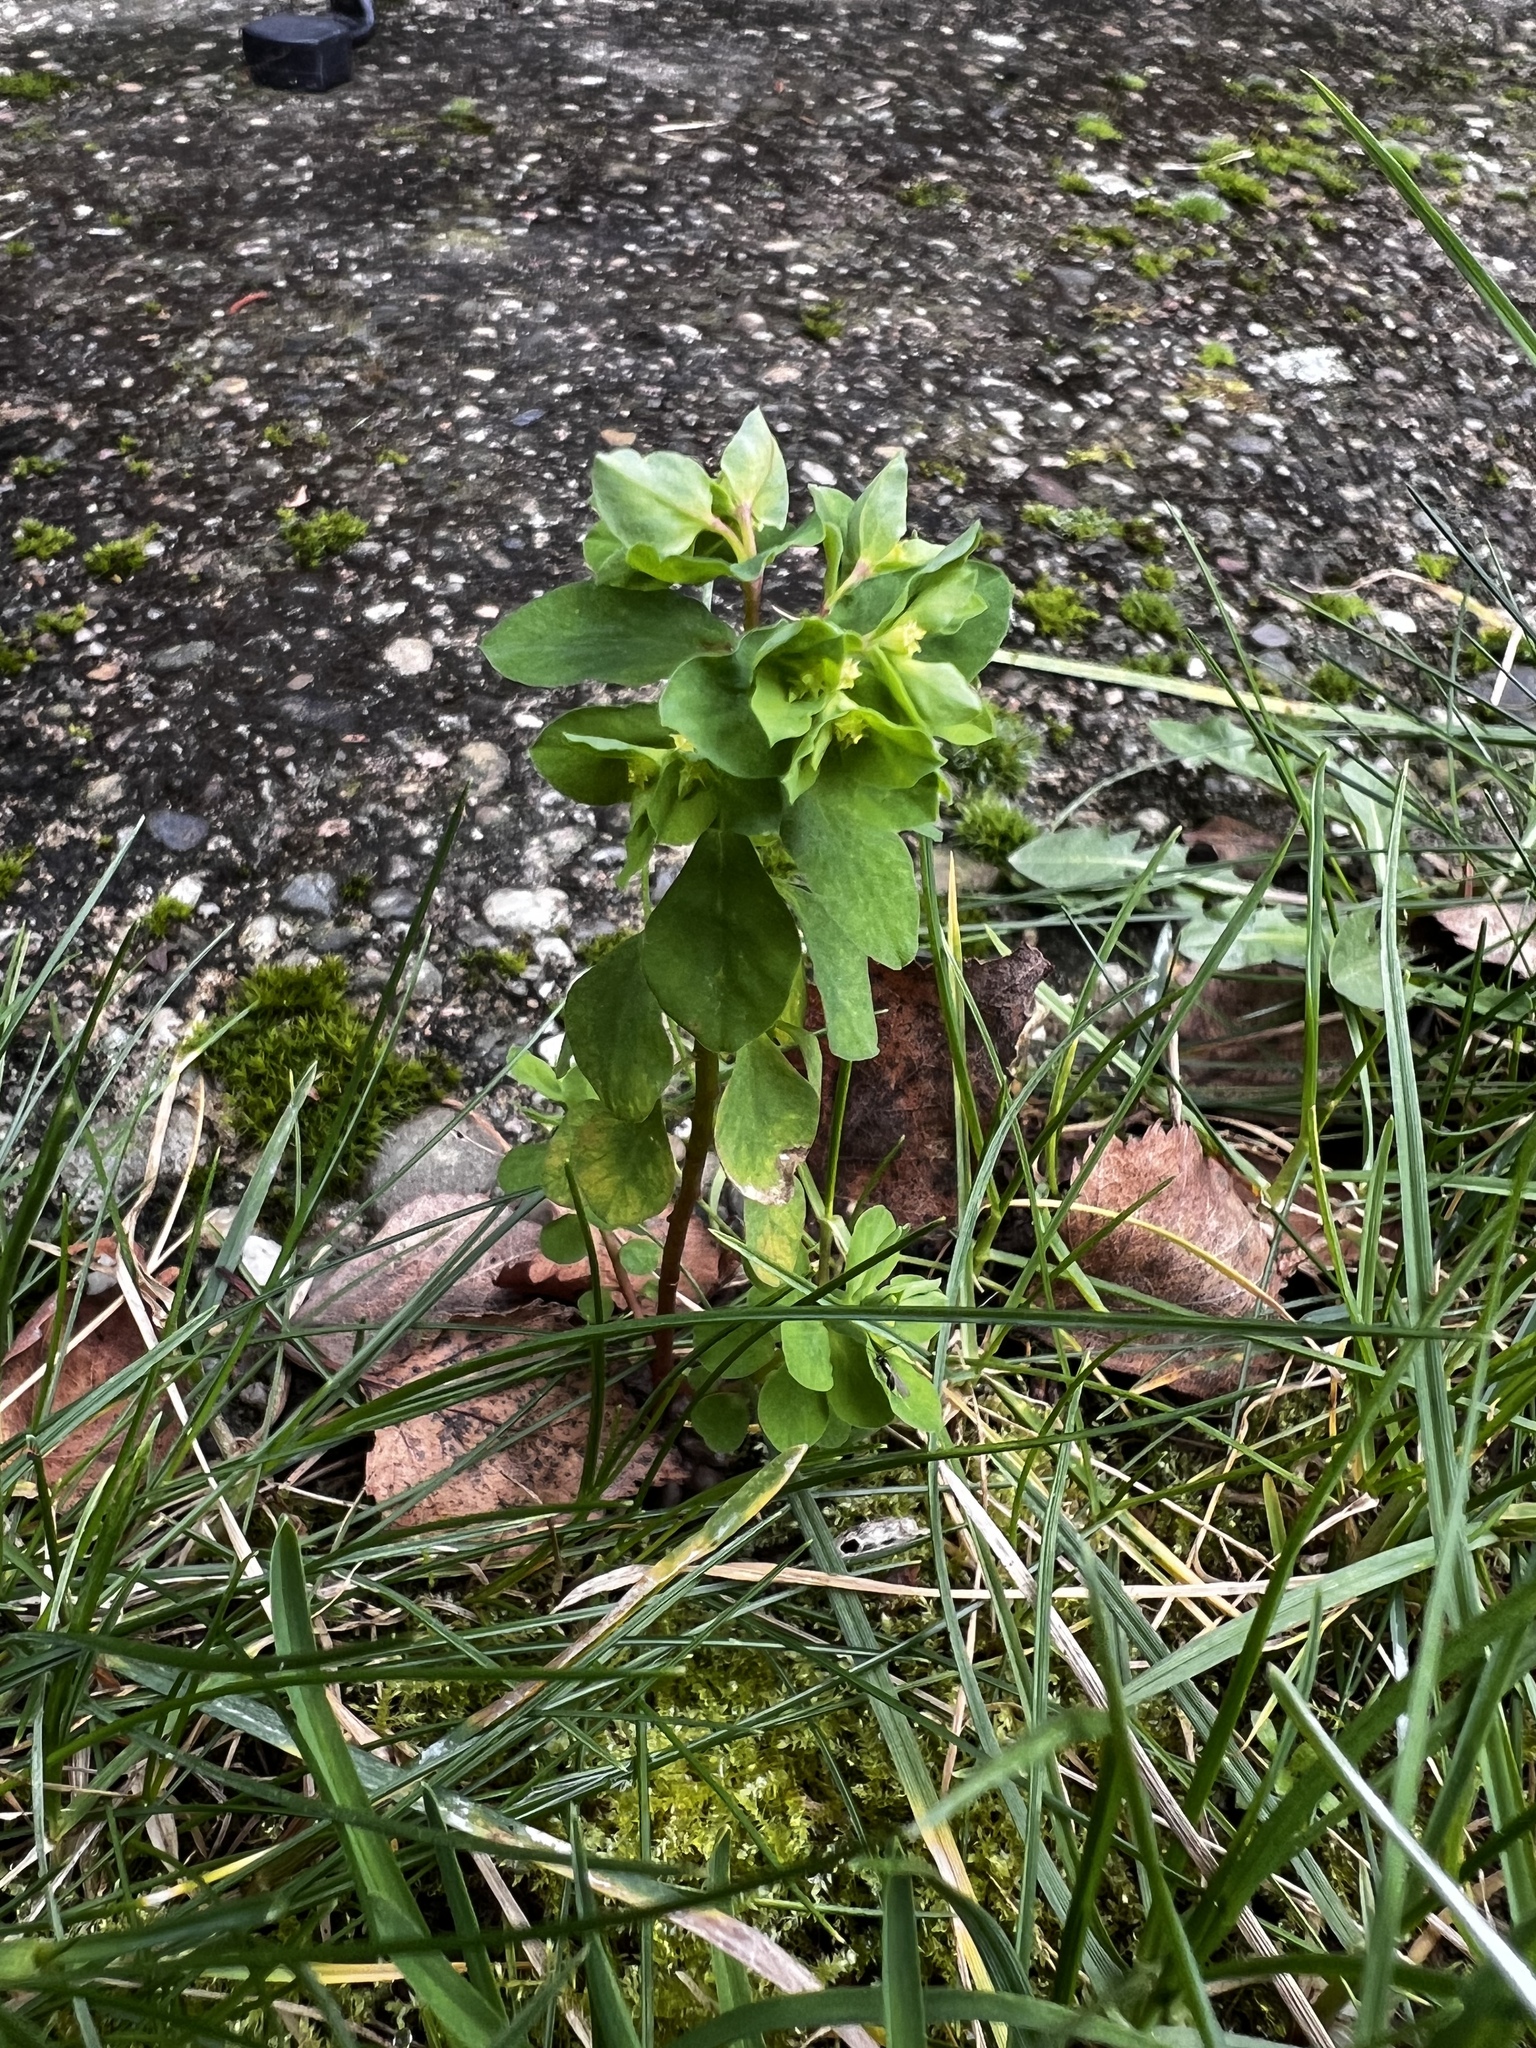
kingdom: Plantae
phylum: Tracheophyta
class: Magnoliopsida
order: Malpighiales
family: Euphorbiaceae
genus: Euphorbia
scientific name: Euphorbia peplus
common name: Petty spurge
